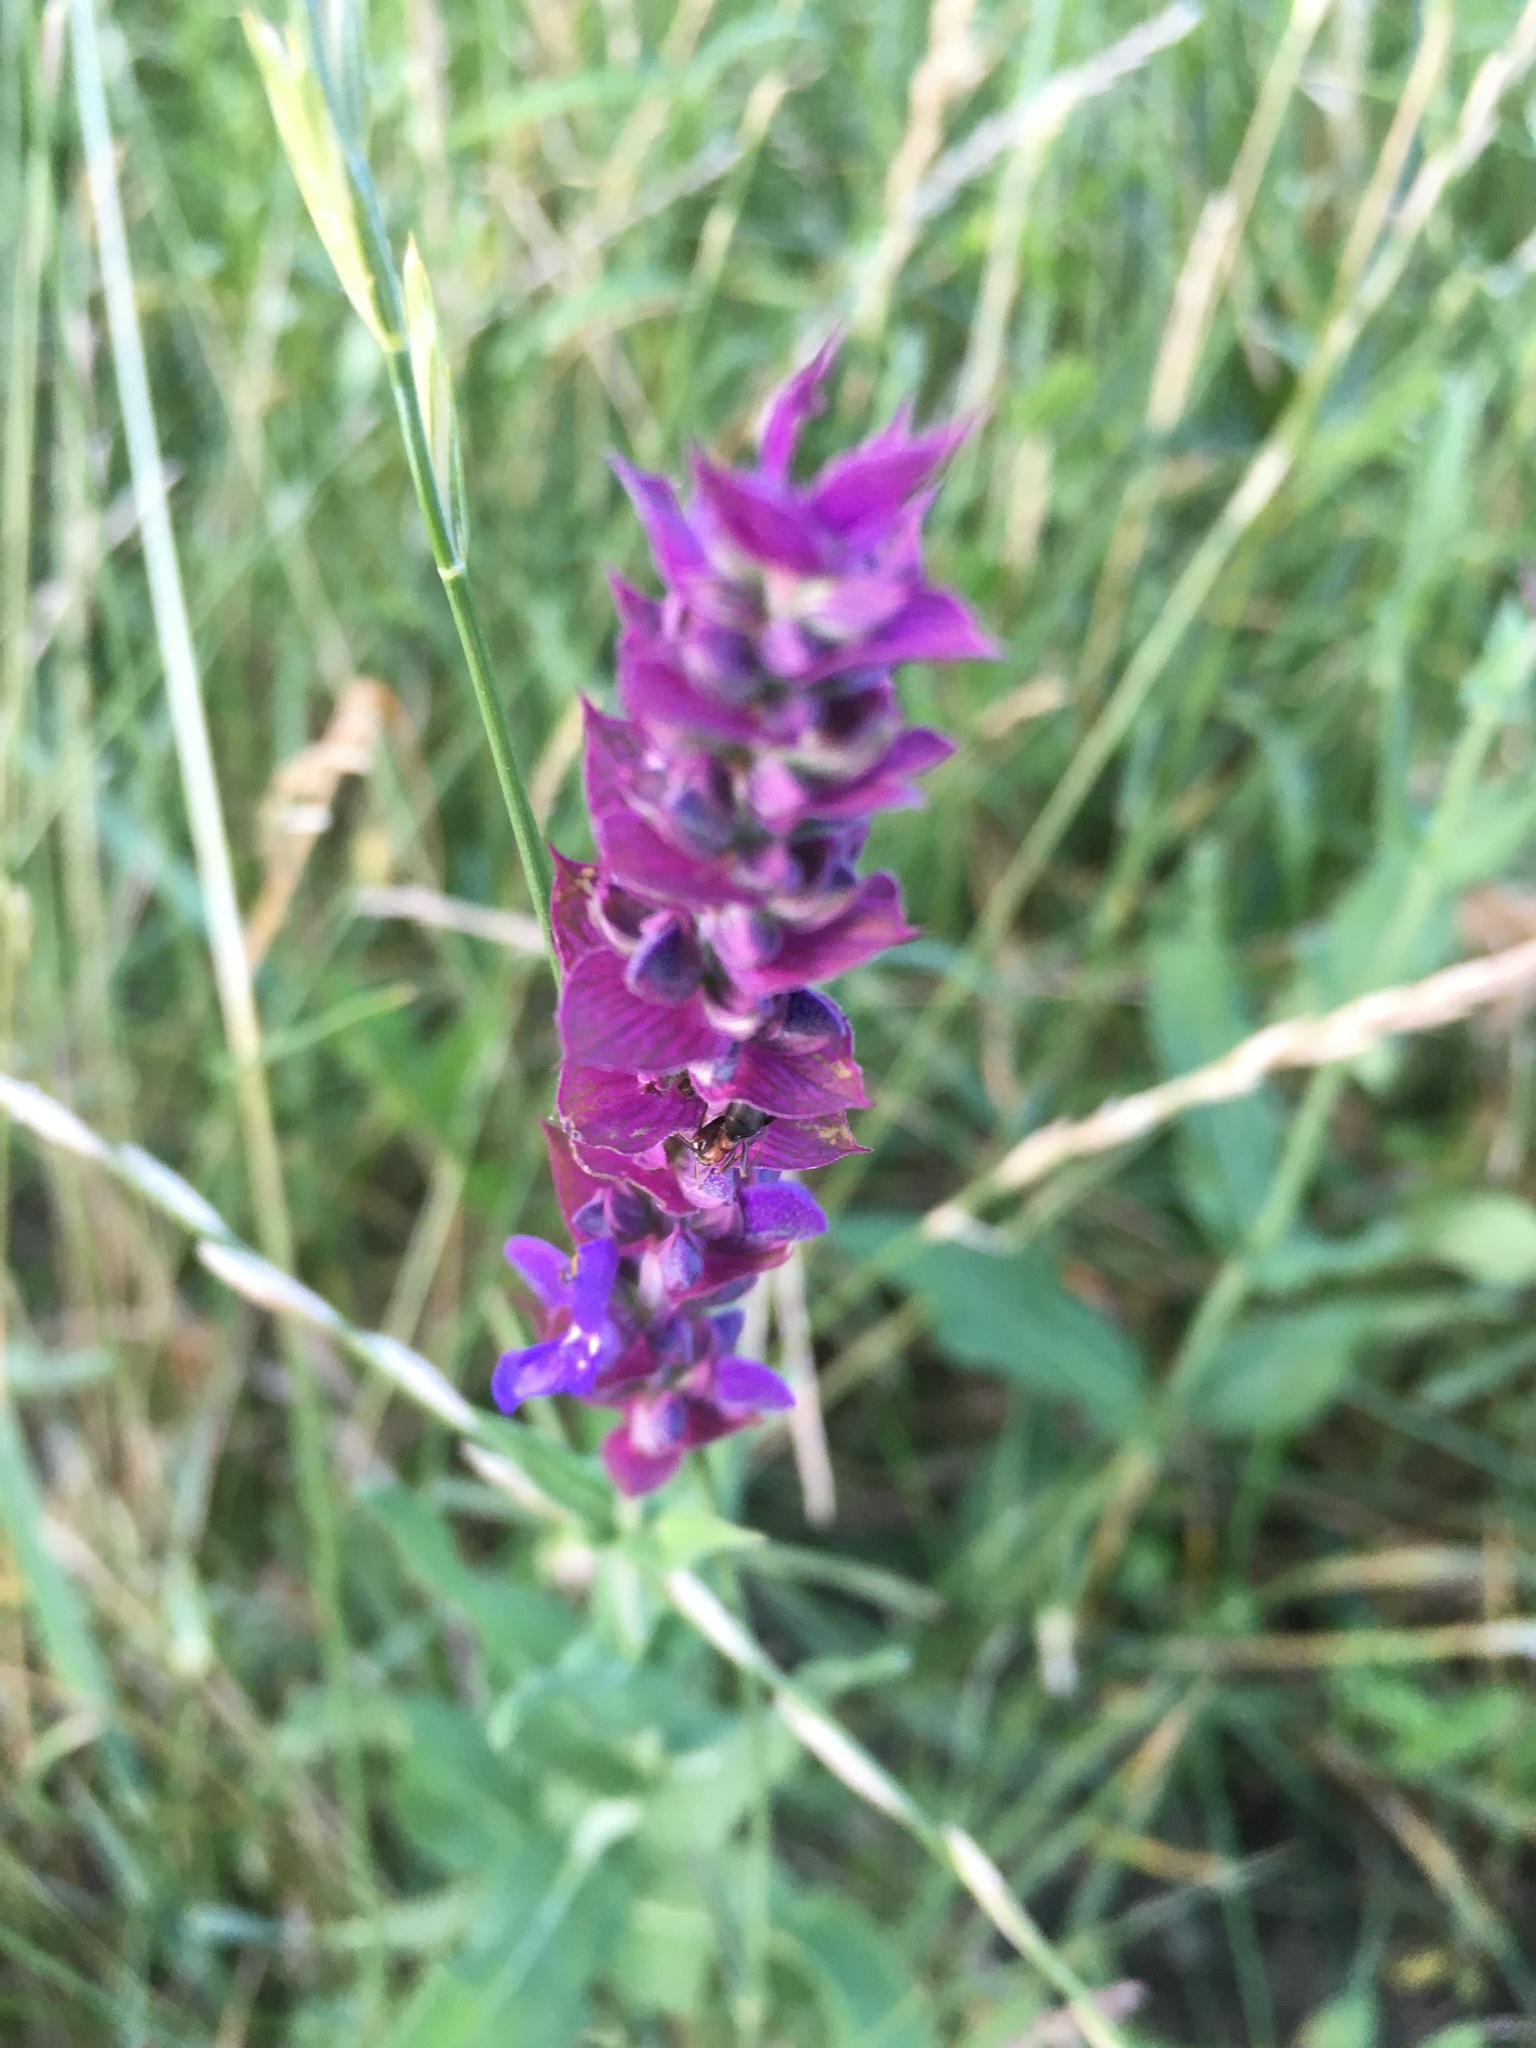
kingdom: Plantae
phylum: Tracheophyta
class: Magnoliopsida
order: Lamiales
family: Lamiaceae
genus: Salvia
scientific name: Salvia nemorosa
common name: Balkan clary
